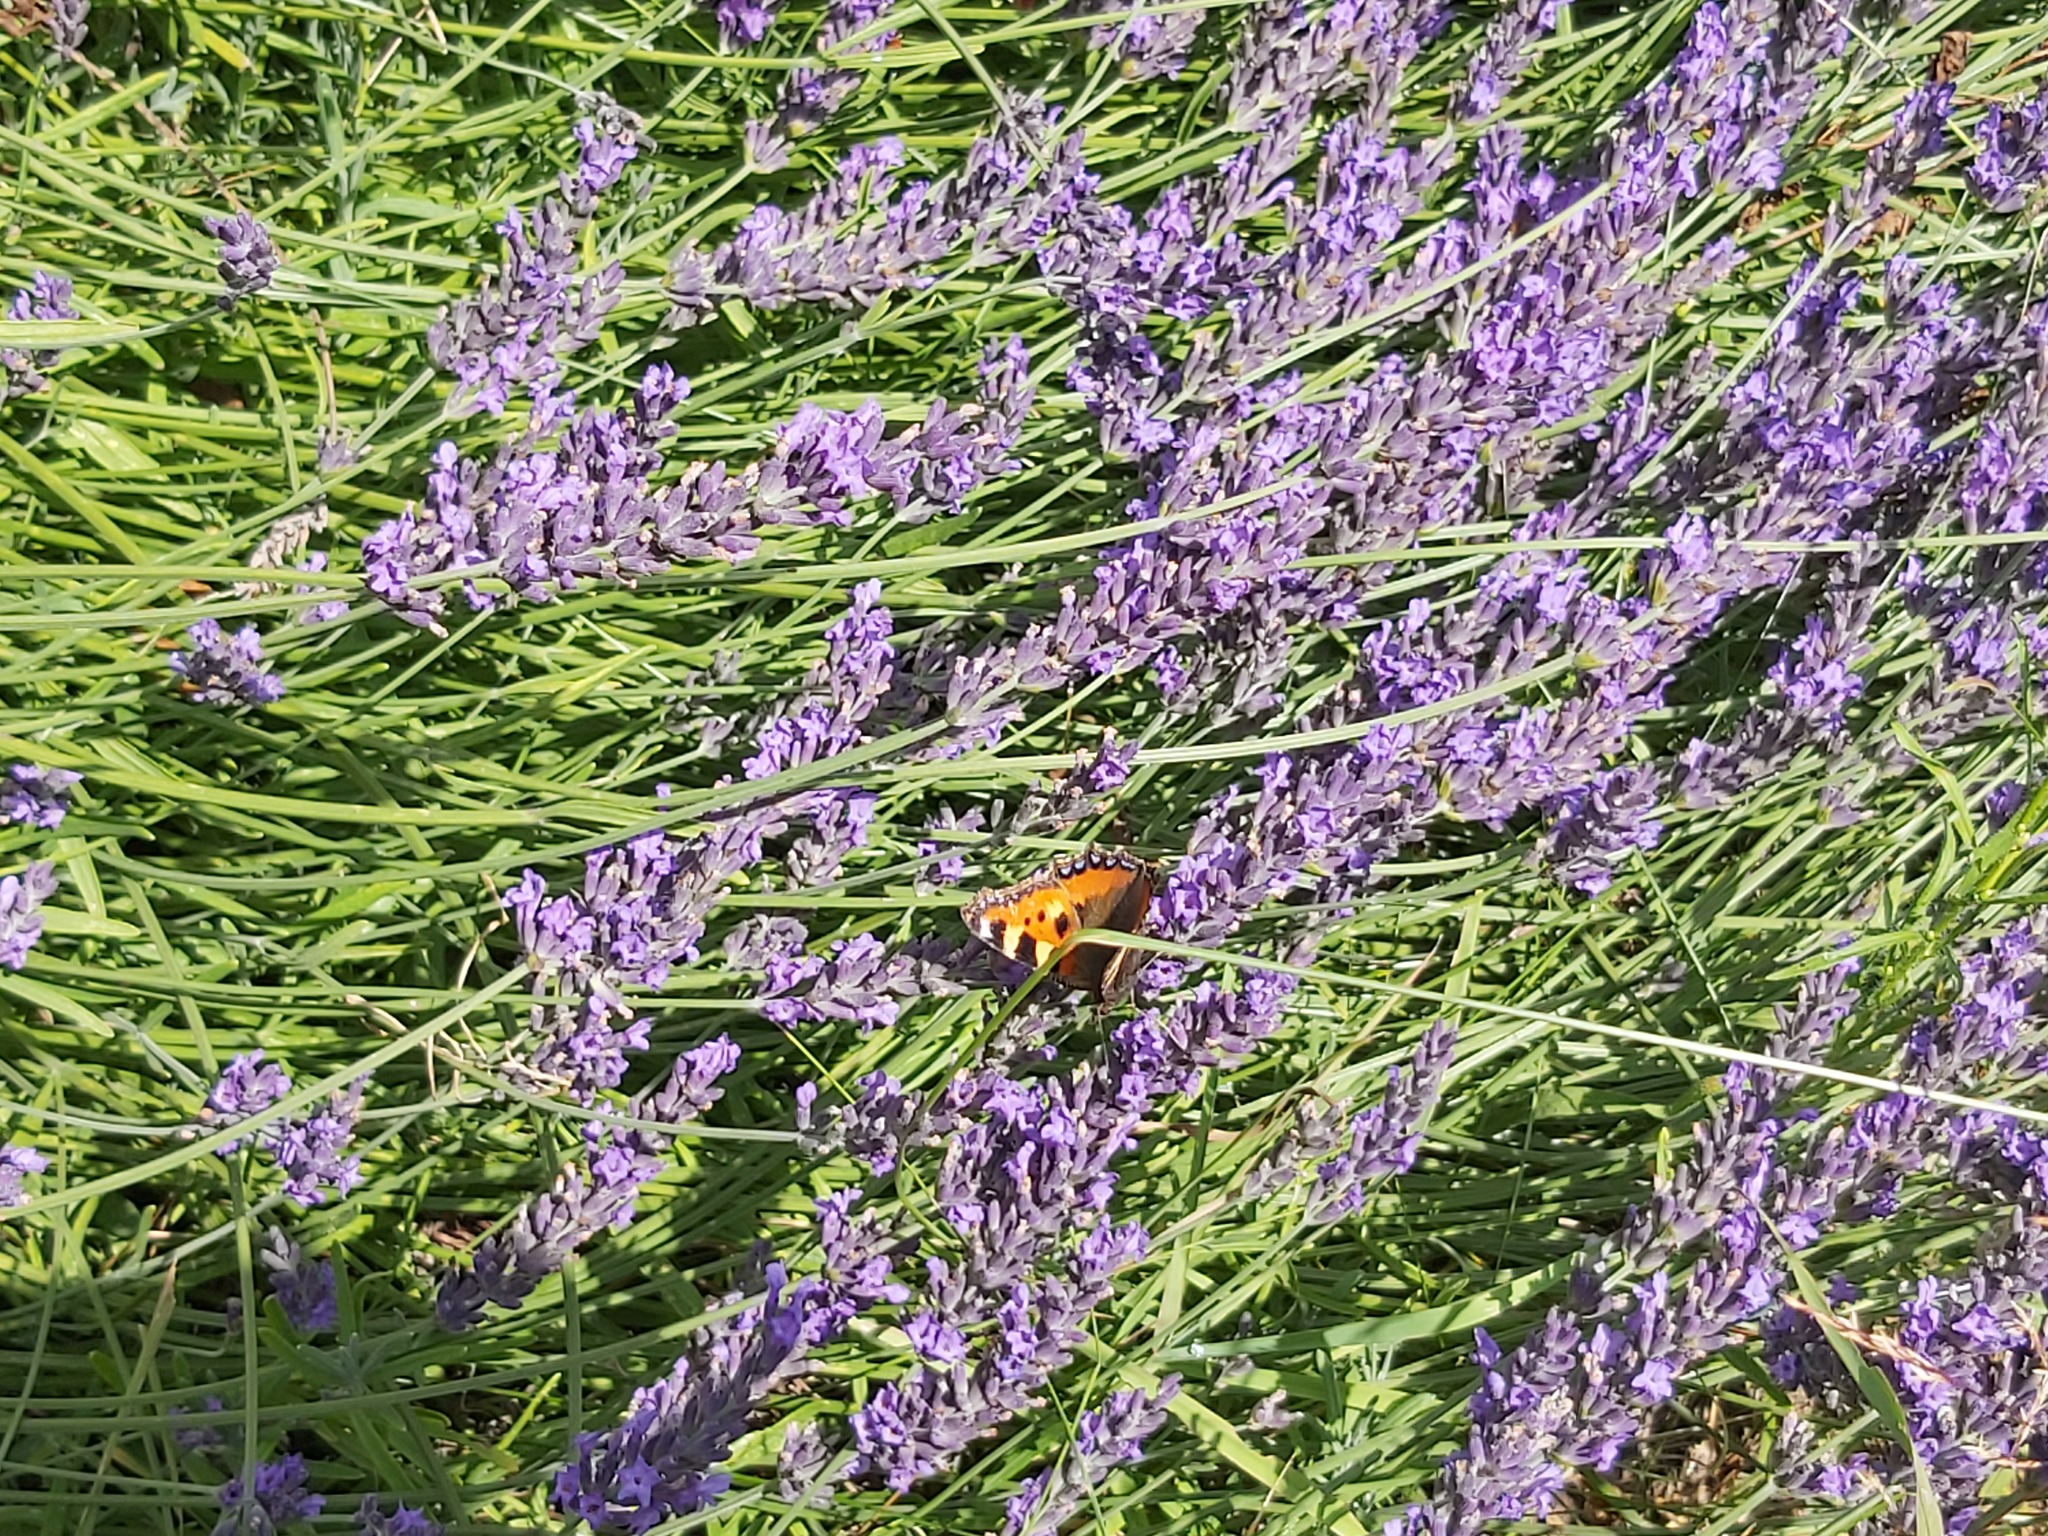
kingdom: Animalia
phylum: Arthropoda
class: Insecta
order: Lepidoptera
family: Nymphalidae
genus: Aglais
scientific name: Aglais urticae
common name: Small tortoiseshell
